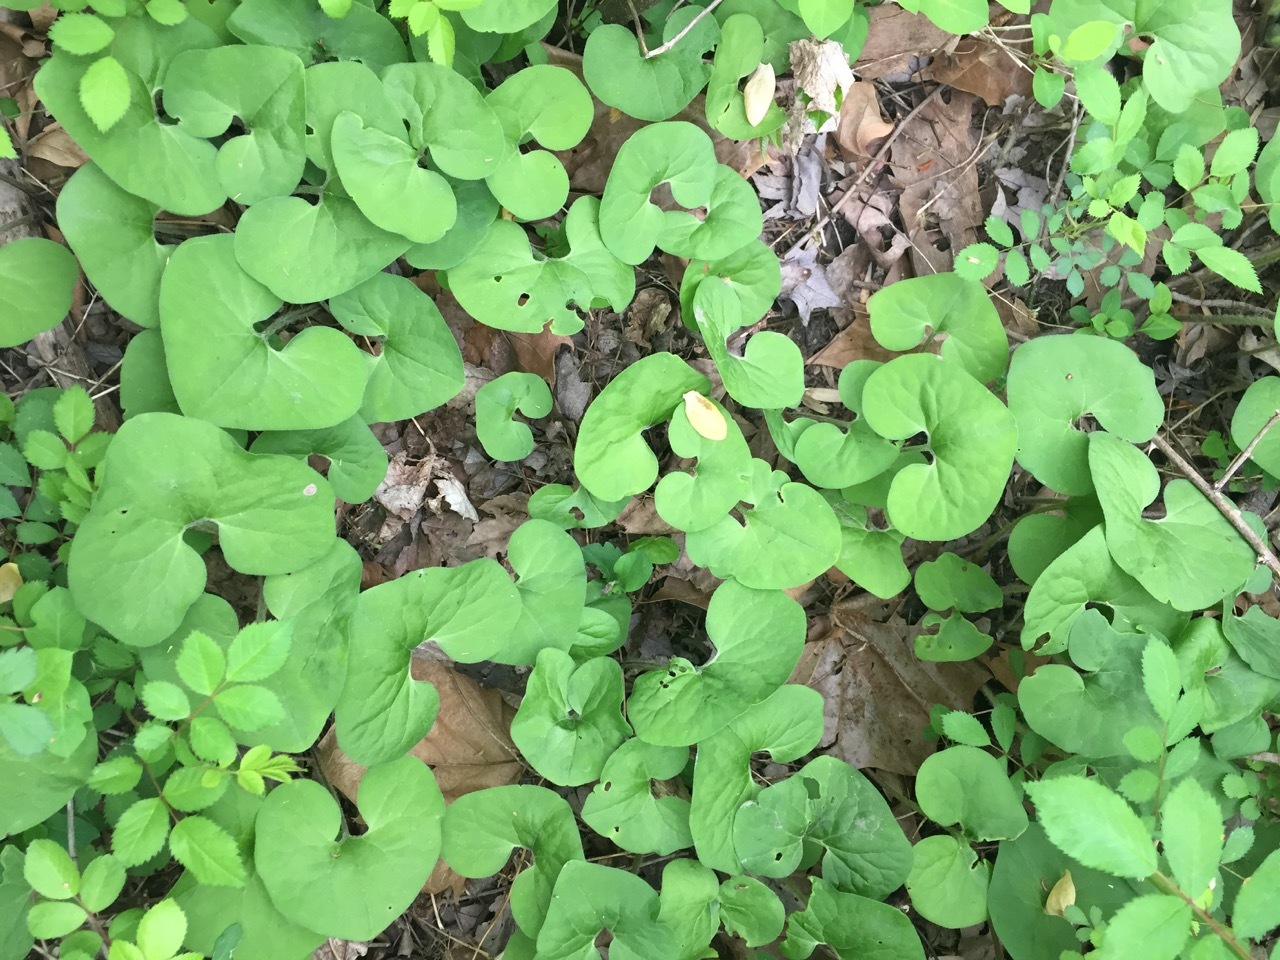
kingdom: Plantae
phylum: Tracheophyta
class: Magnoliopsida
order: Piperales
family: Aristolochiaceae
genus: Asarum
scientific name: Asarum canadense
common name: Wild ginger
